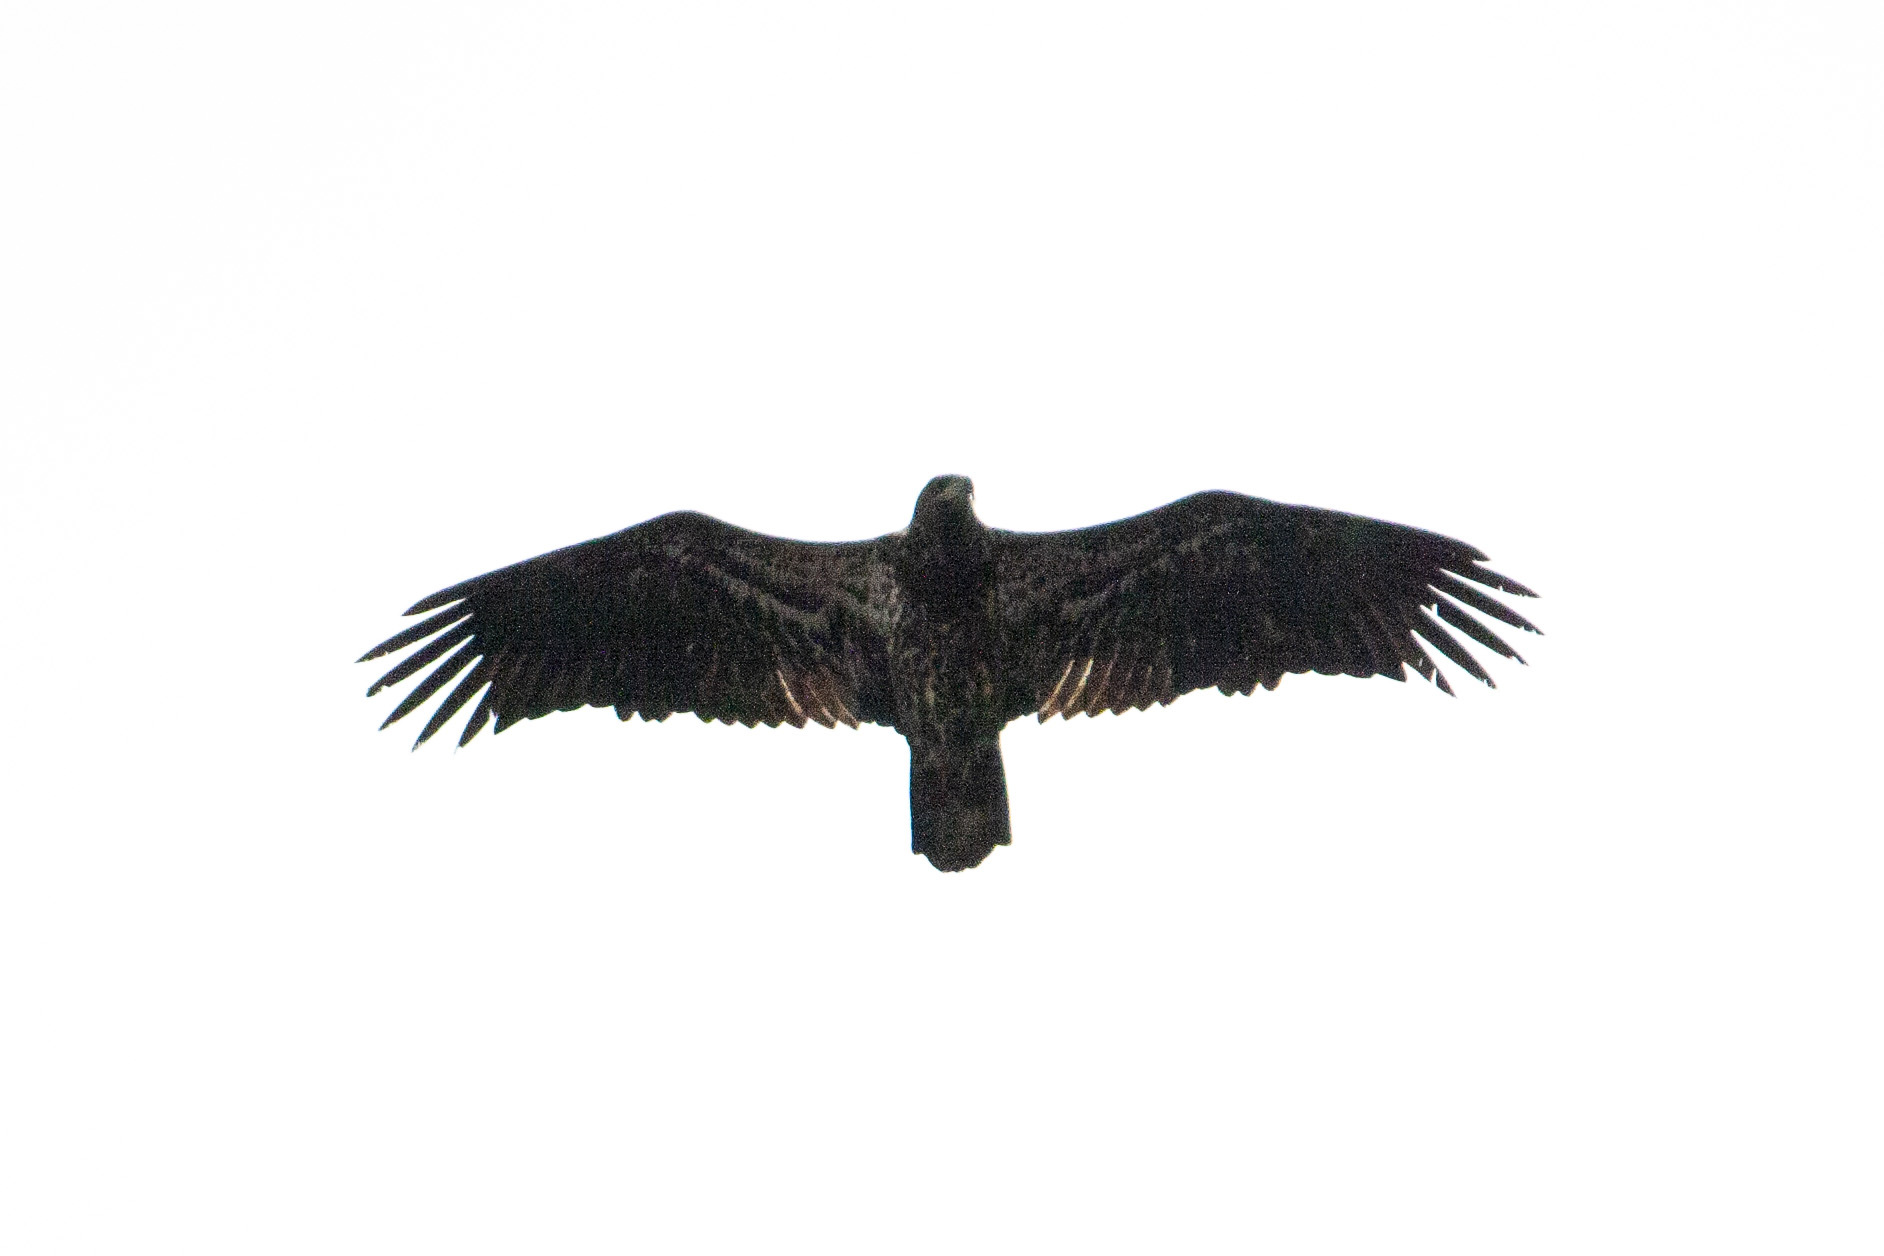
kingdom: Animalia
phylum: Chordata
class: Aves
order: Accipitriformes
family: Accipitridae
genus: Haliaeetus
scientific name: Haliaeetus leucocephalus
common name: Bald eagle
